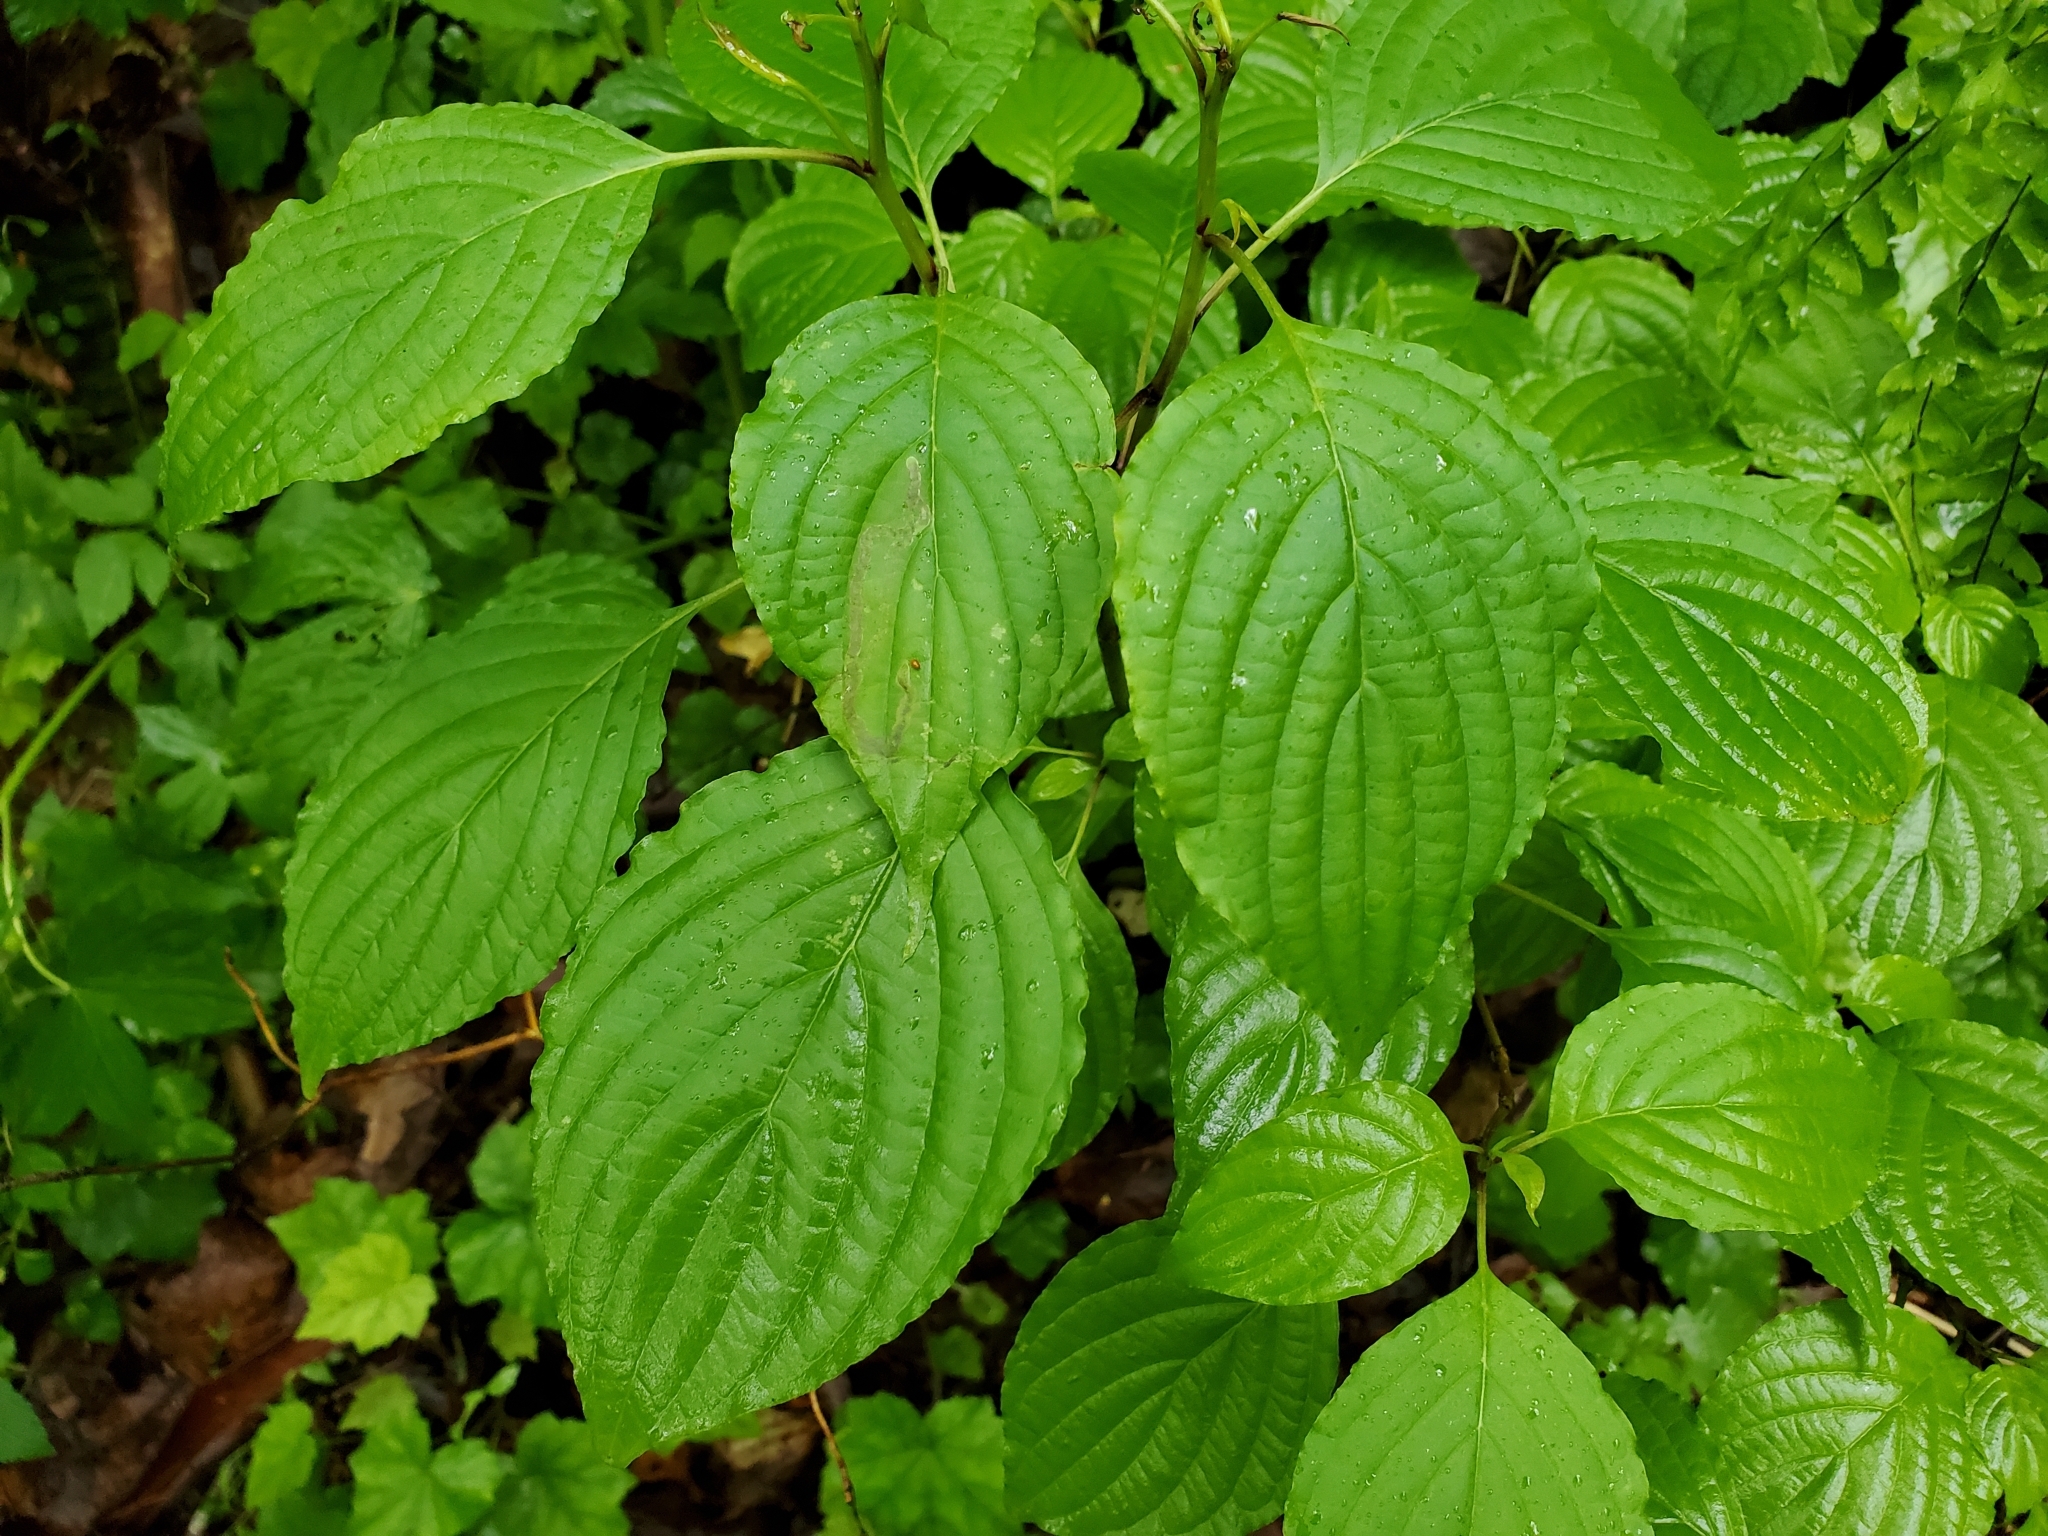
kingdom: Plantae
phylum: Tracheophyta
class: Magnoliopsida
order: Cornales
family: Cornaceae
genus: Cornus
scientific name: Cornus alternifolia
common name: Pagoda dogwood
